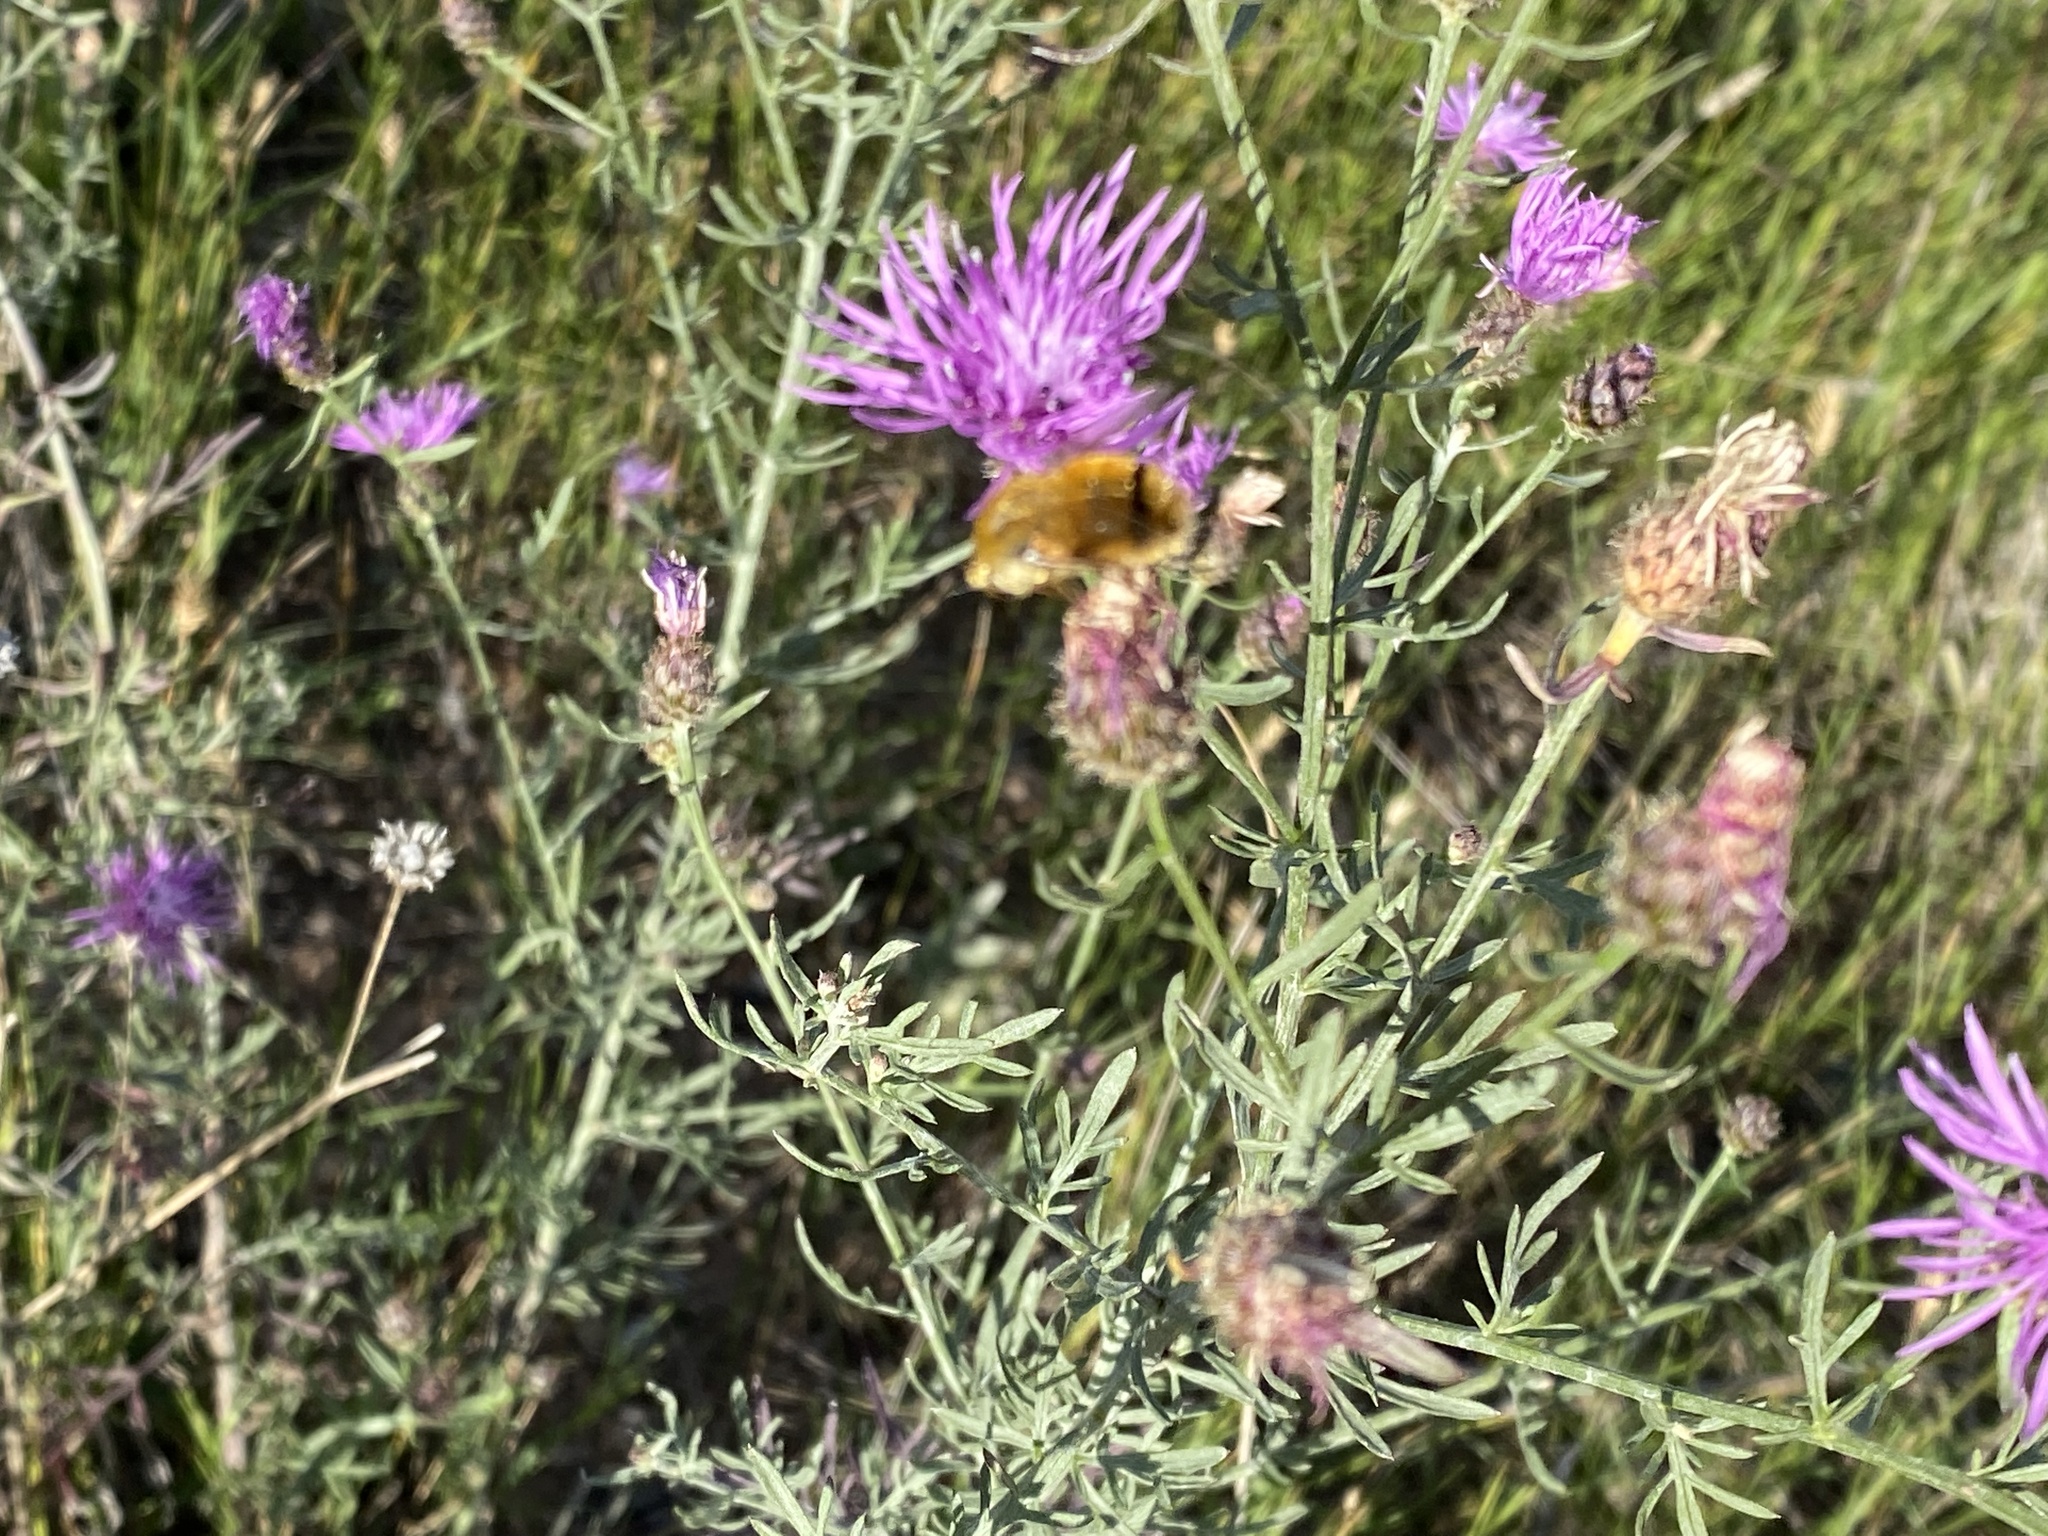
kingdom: Plantae
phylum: Tracheophyta
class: Magnoliopsida
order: Asterales
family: Asteraceae
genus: Leuzea
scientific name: Leuzea repens
